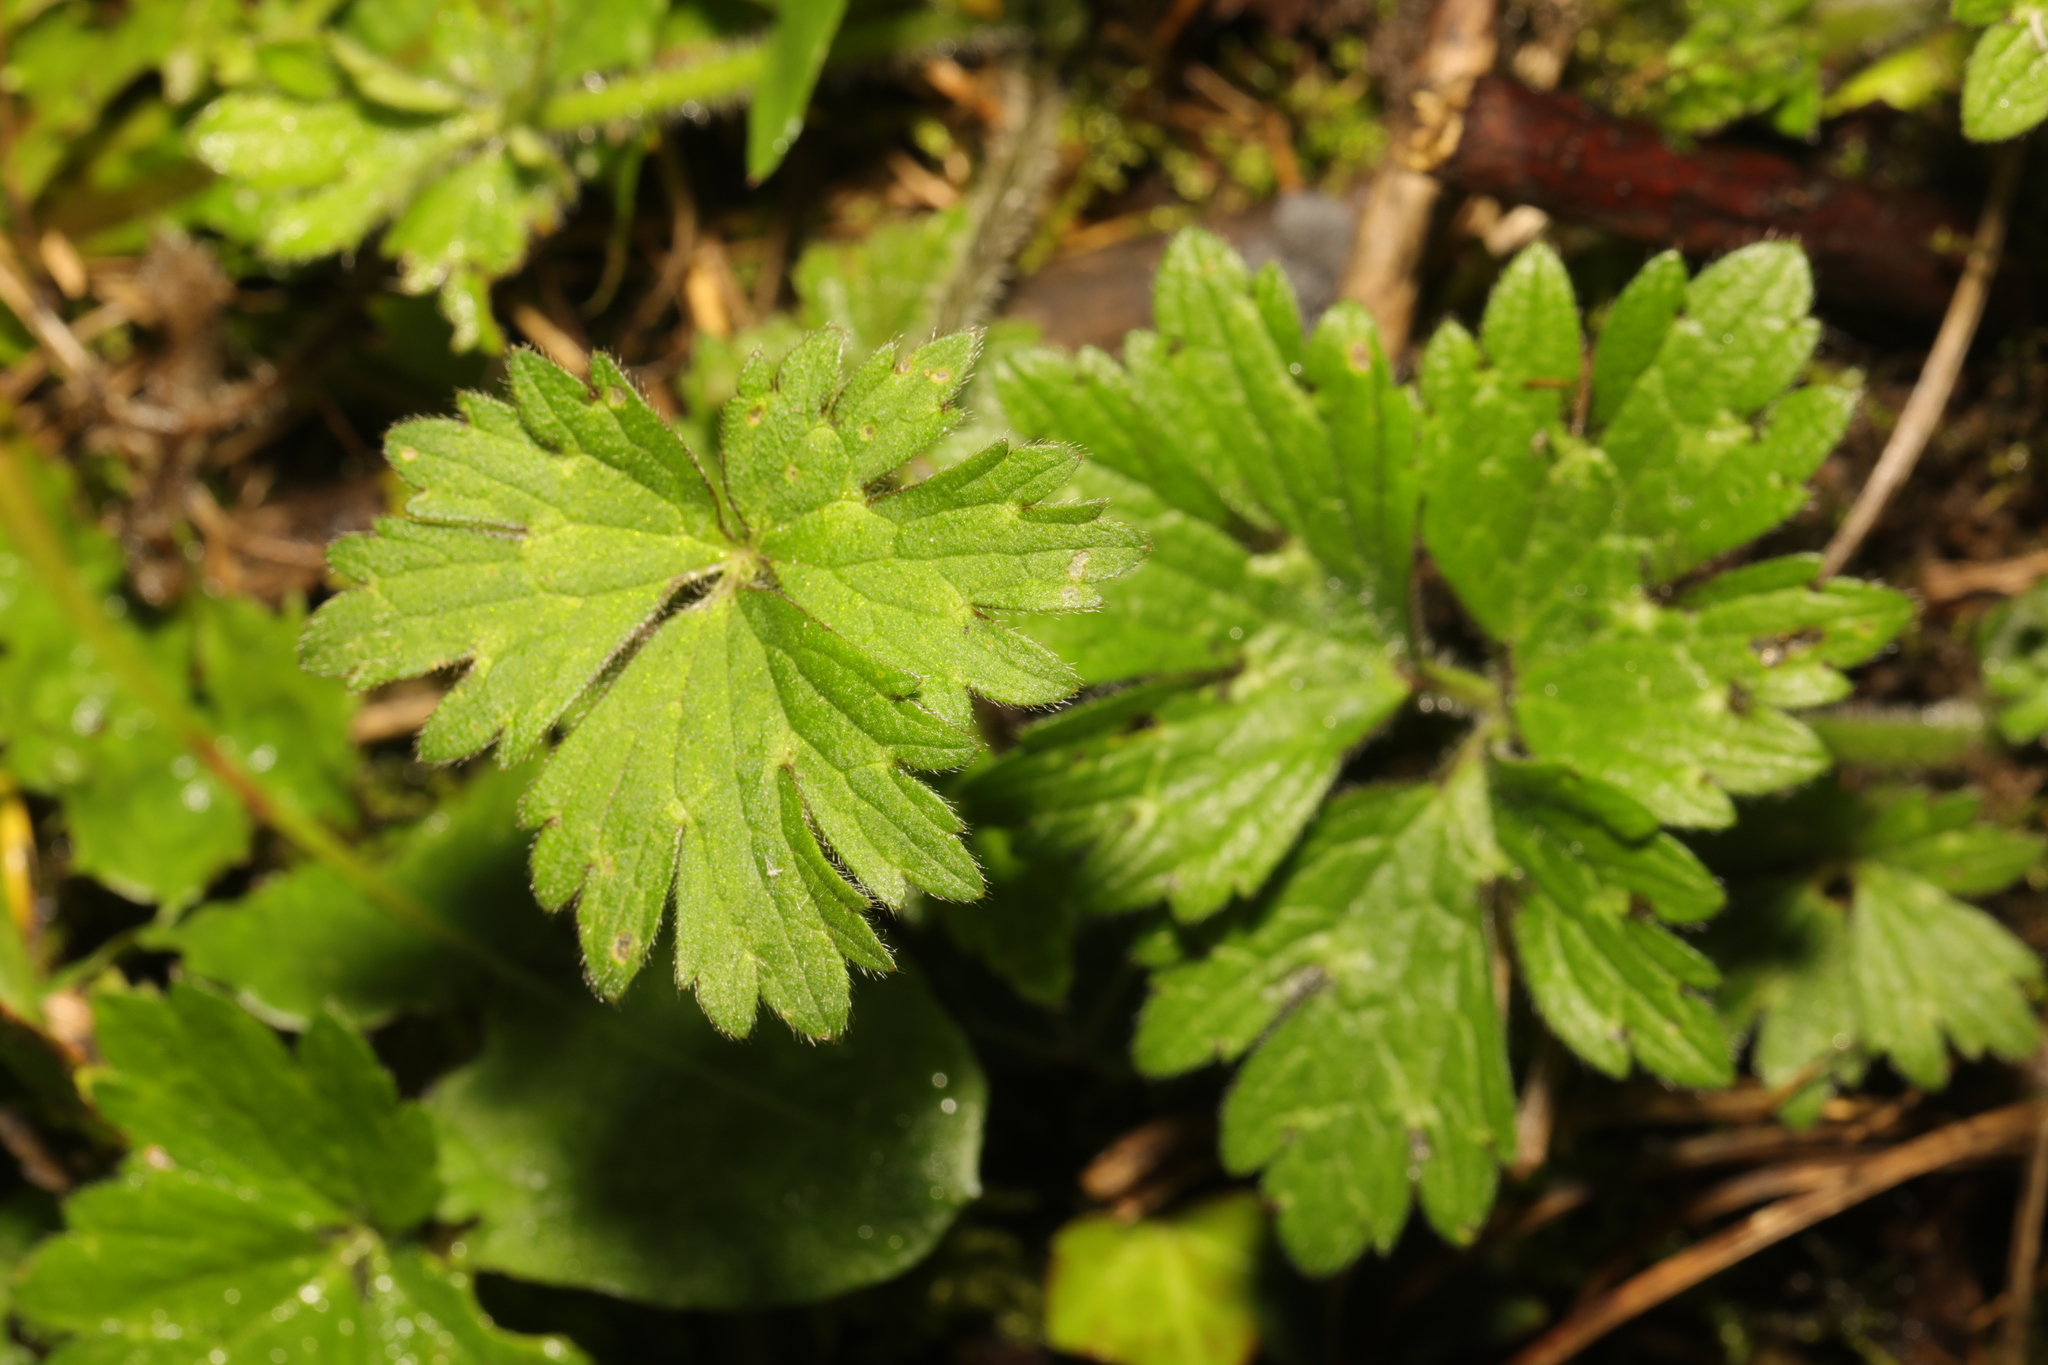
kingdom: Plantae
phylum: Tracheophyta
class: Magnoliopsida
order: Ranunculales
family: Ranunculaceae
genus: Ranunculus
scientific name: Ranunculus repens
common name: Creeping buttercup
